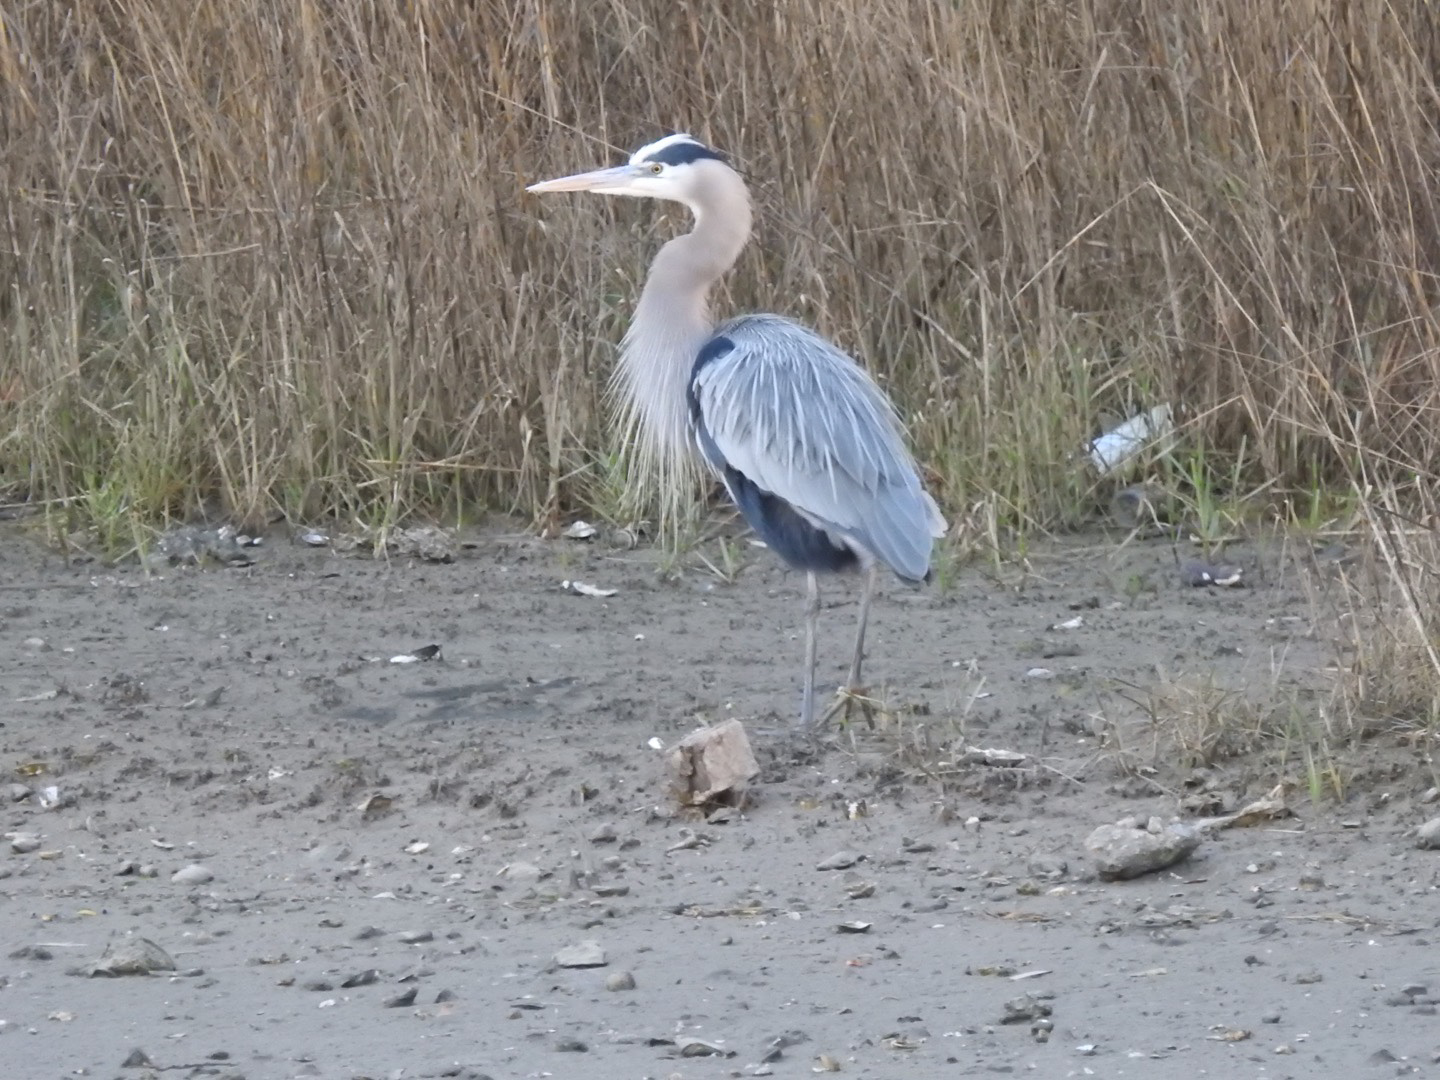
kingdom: Animalia
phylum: Chordata
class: Aves
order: Pelecaniformes
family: Ardeidae
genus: Ardea
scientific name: Ardea herodias
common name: Great blue heron
